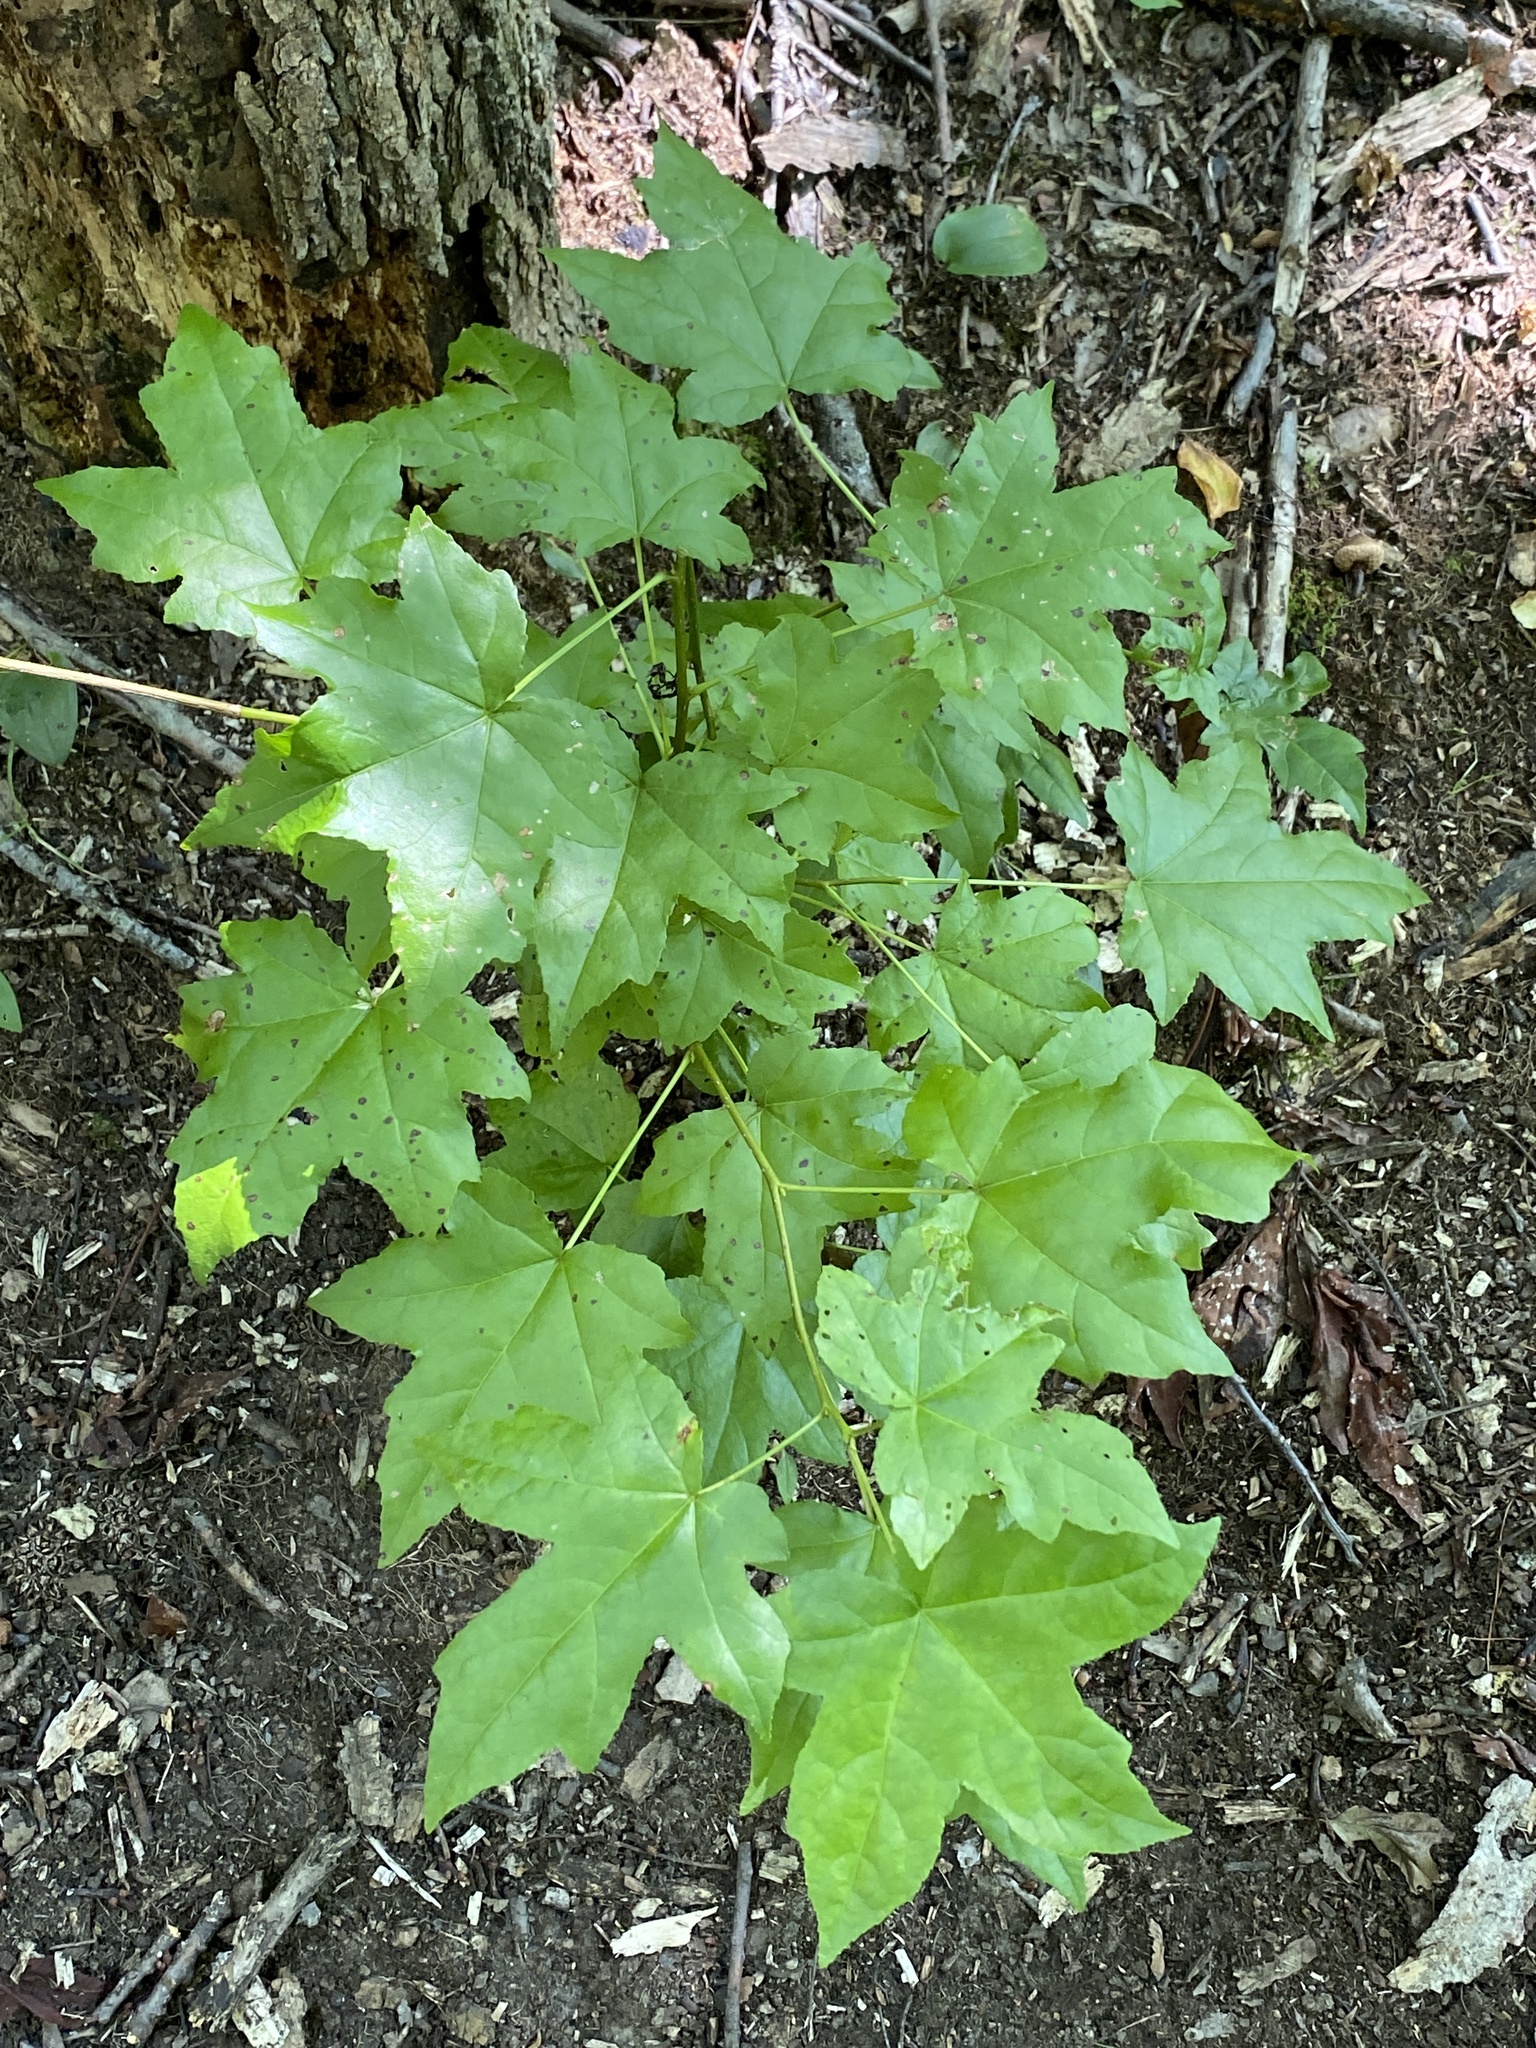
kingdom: Plantae
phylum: Tracheophyta
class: Magnoliopsida
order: Saxifragales
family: Altingiaceae
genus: Liquidambar
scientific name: Liquidambar styraciflua
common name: Sweet gum
